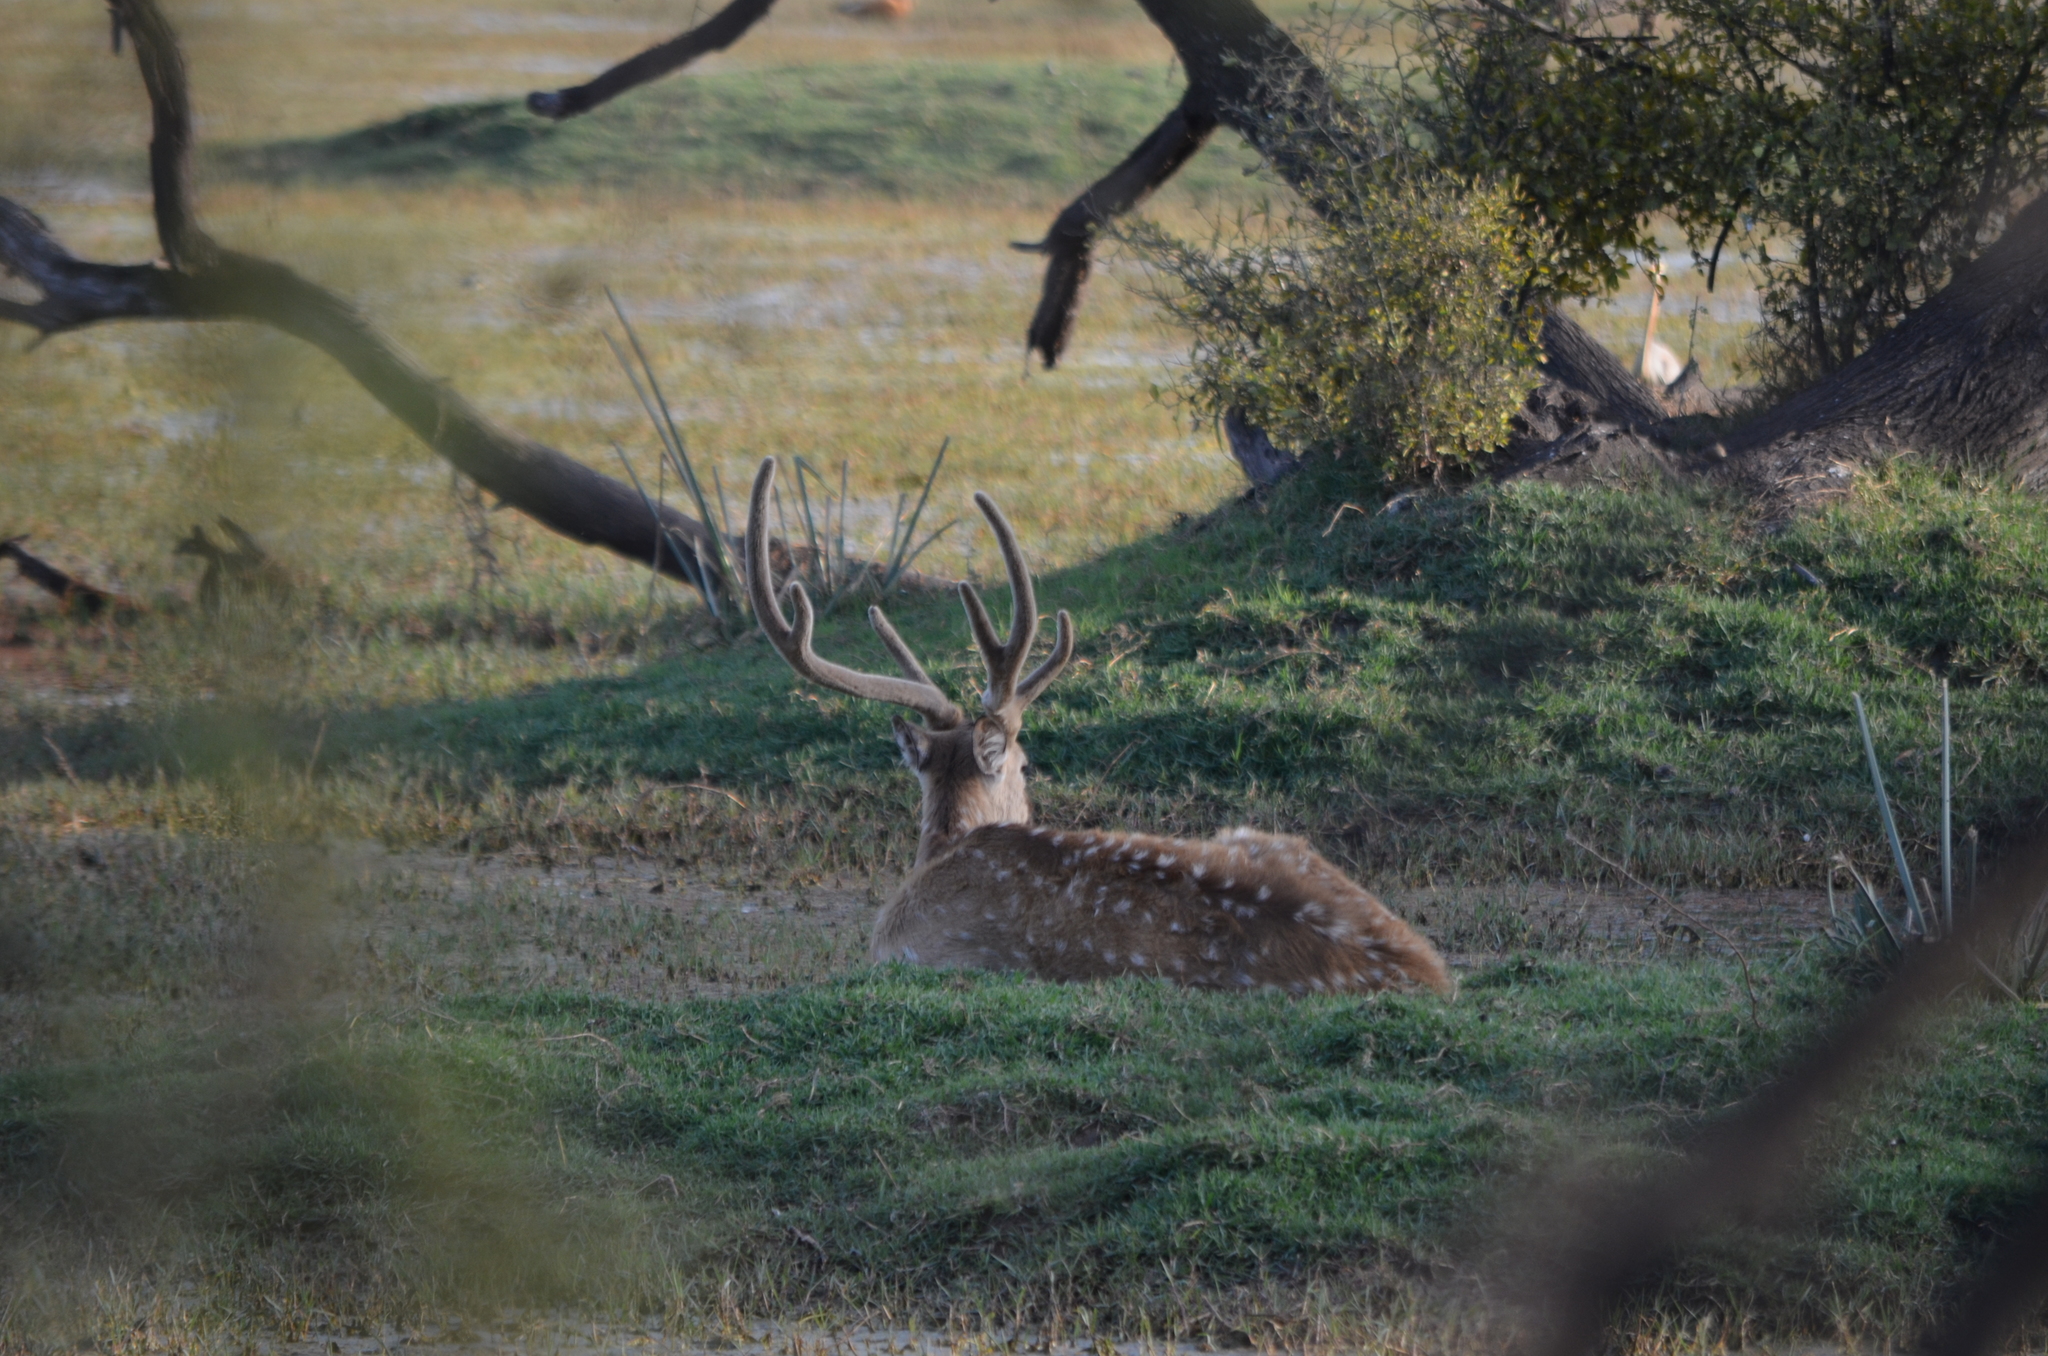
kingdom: Animalia
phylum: Chordata
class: Mammalia
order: Artiodactyla
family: Cervidae
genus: Axis
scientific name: Axis axis
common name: Chital
